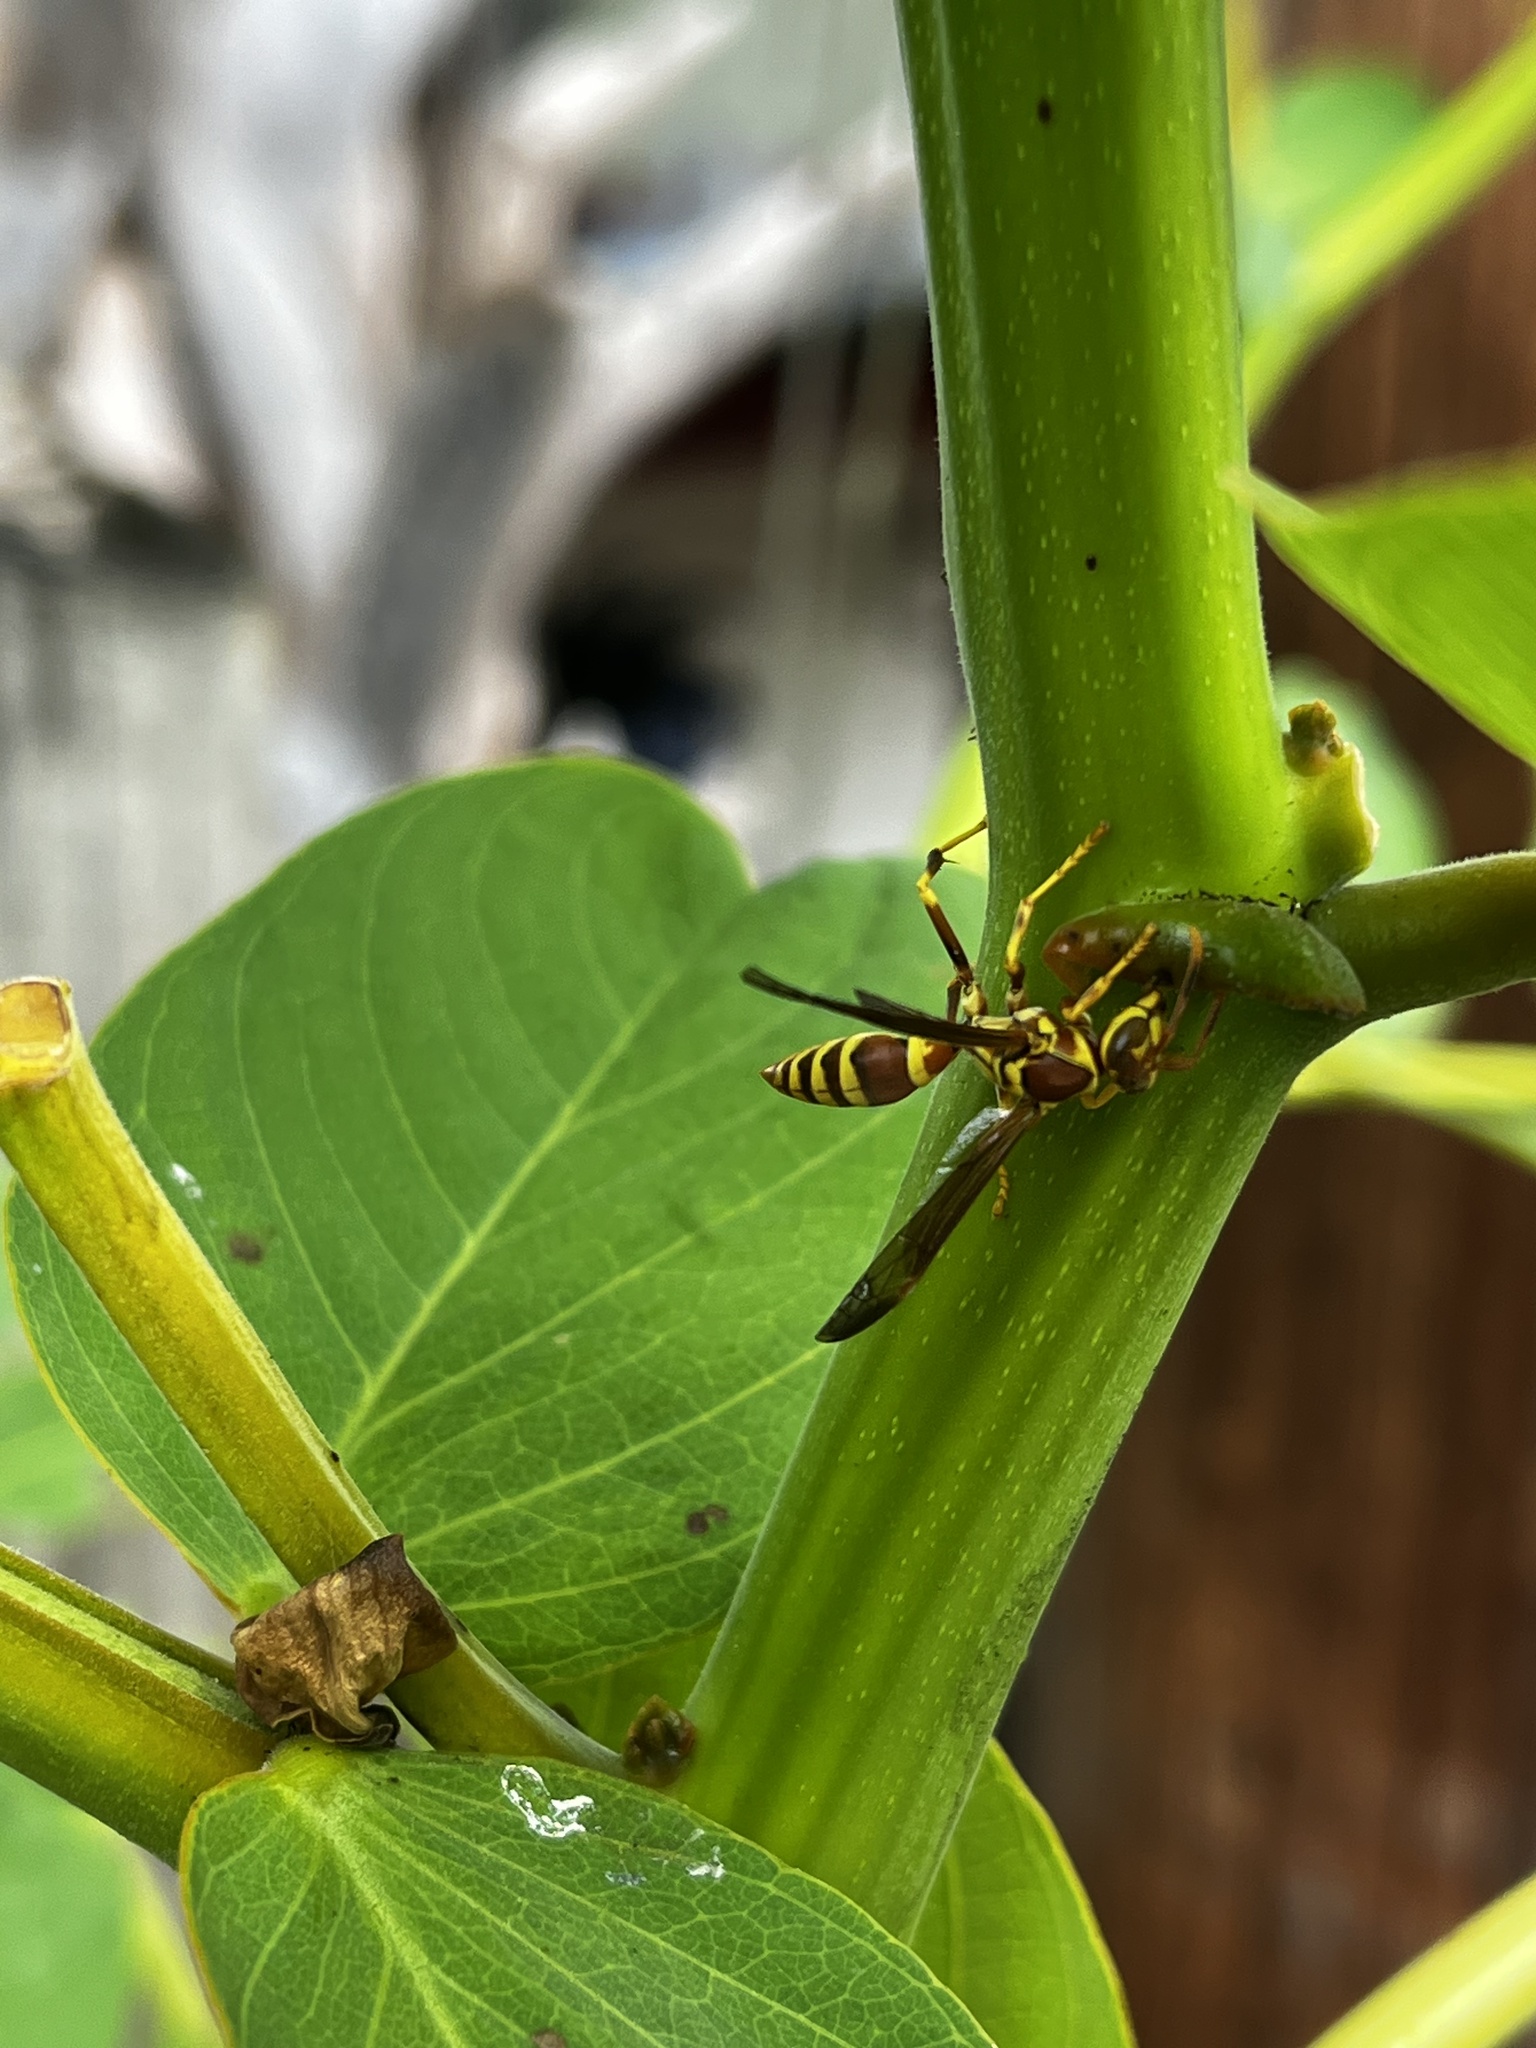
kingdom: Animalia
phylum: Arthropoda
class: Insecta
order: Hymenoptera
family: Eumenidae
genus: Polistes
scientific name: Polistes exclamans
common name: Paper wasp
